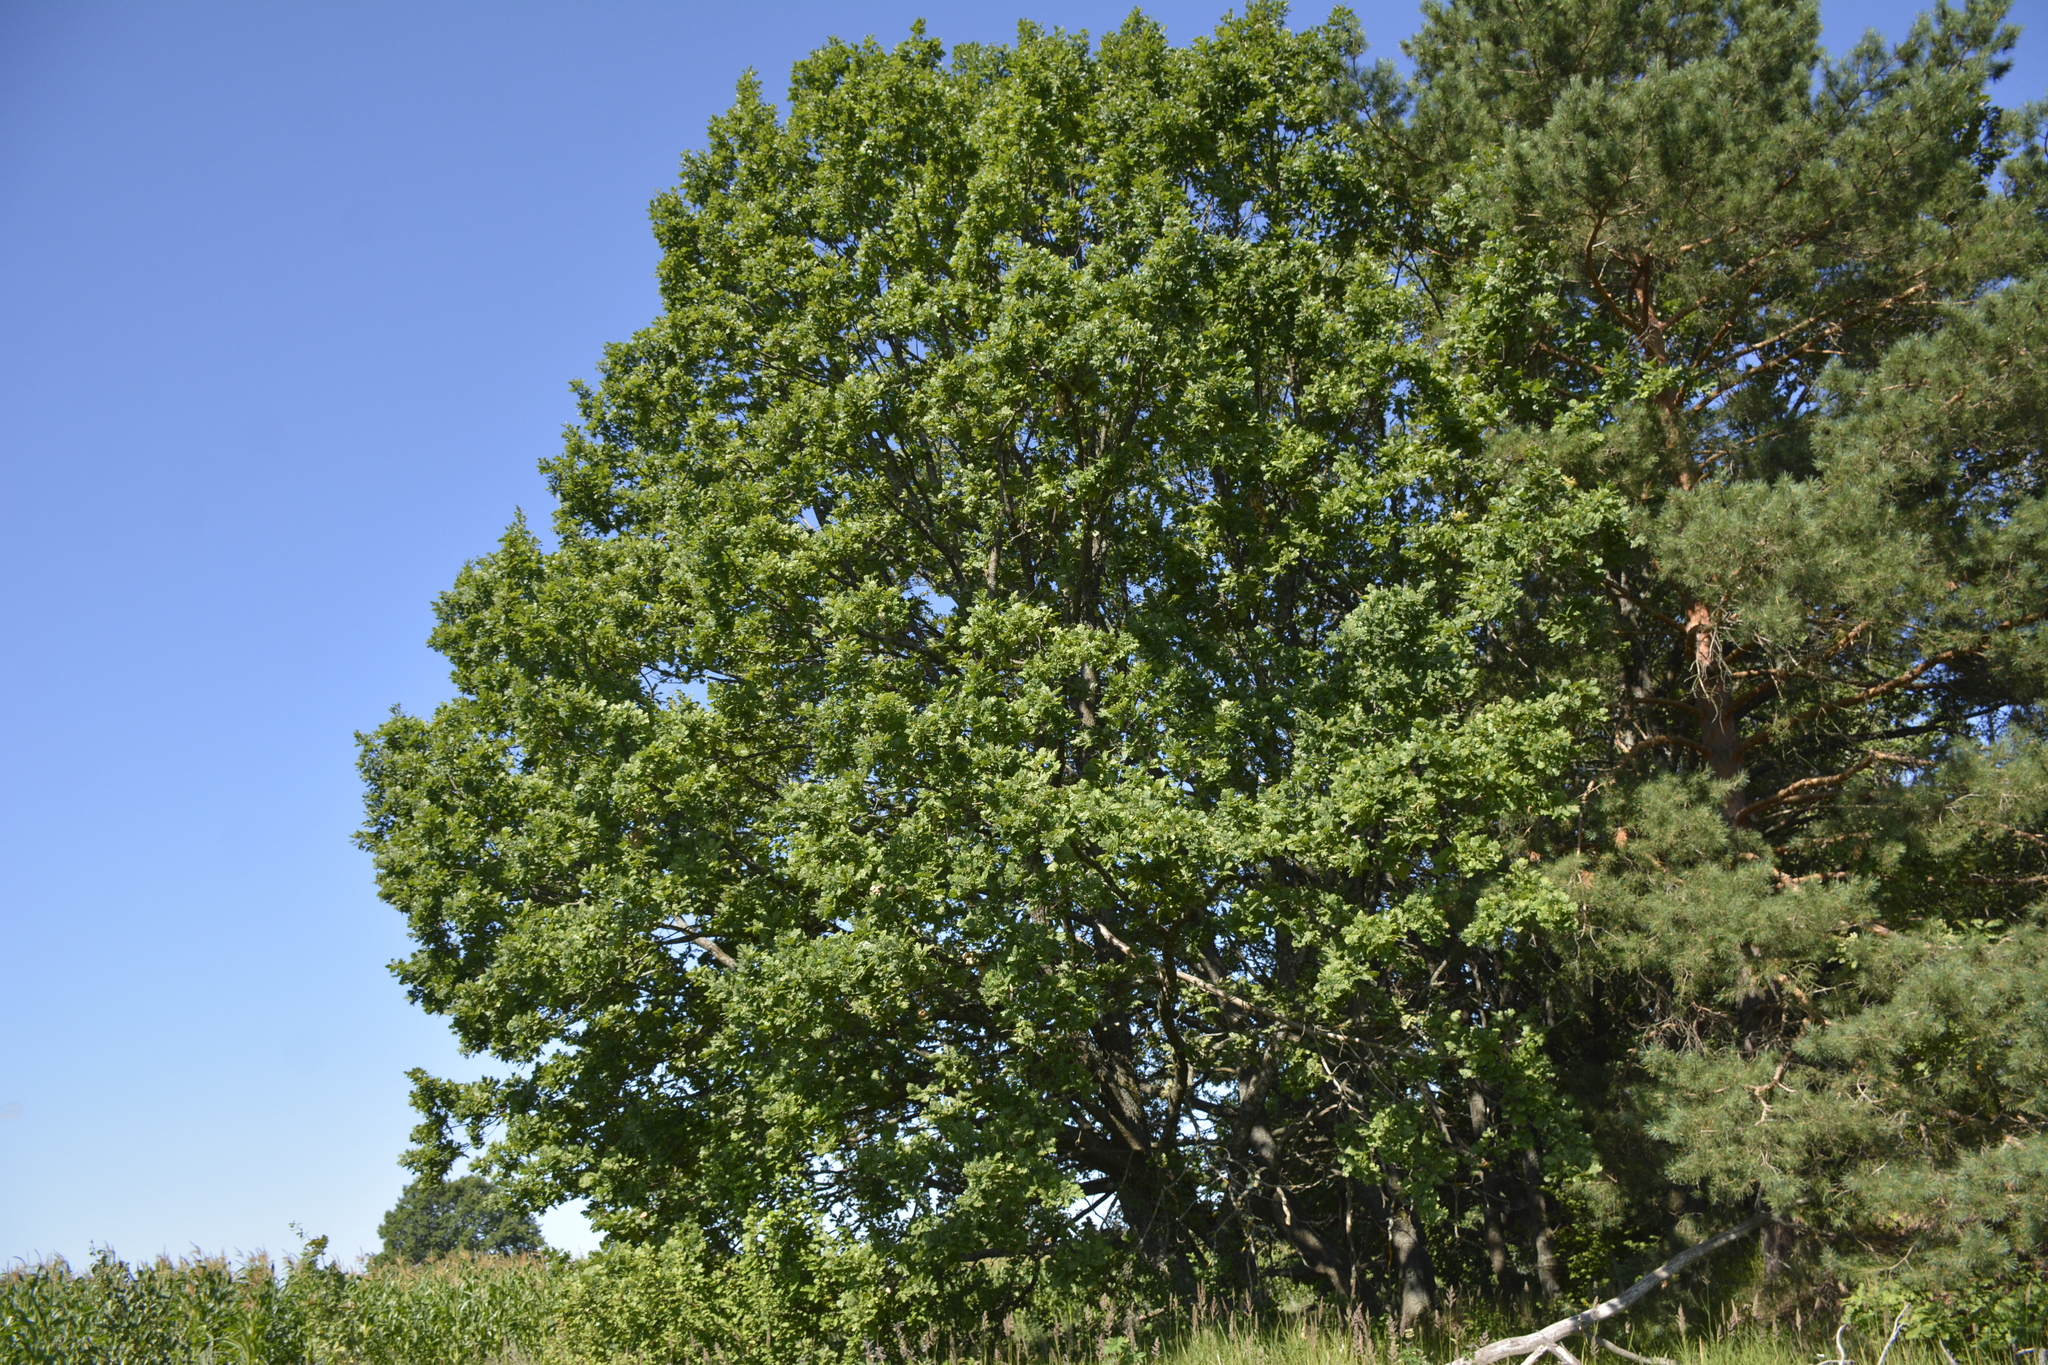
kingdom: Plantae
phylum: Tracheophyta
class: Magnoliopsida
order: Fagales
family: Fagaceae
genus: Quercus
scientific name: Quercus robur
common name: Pedunculate oak
